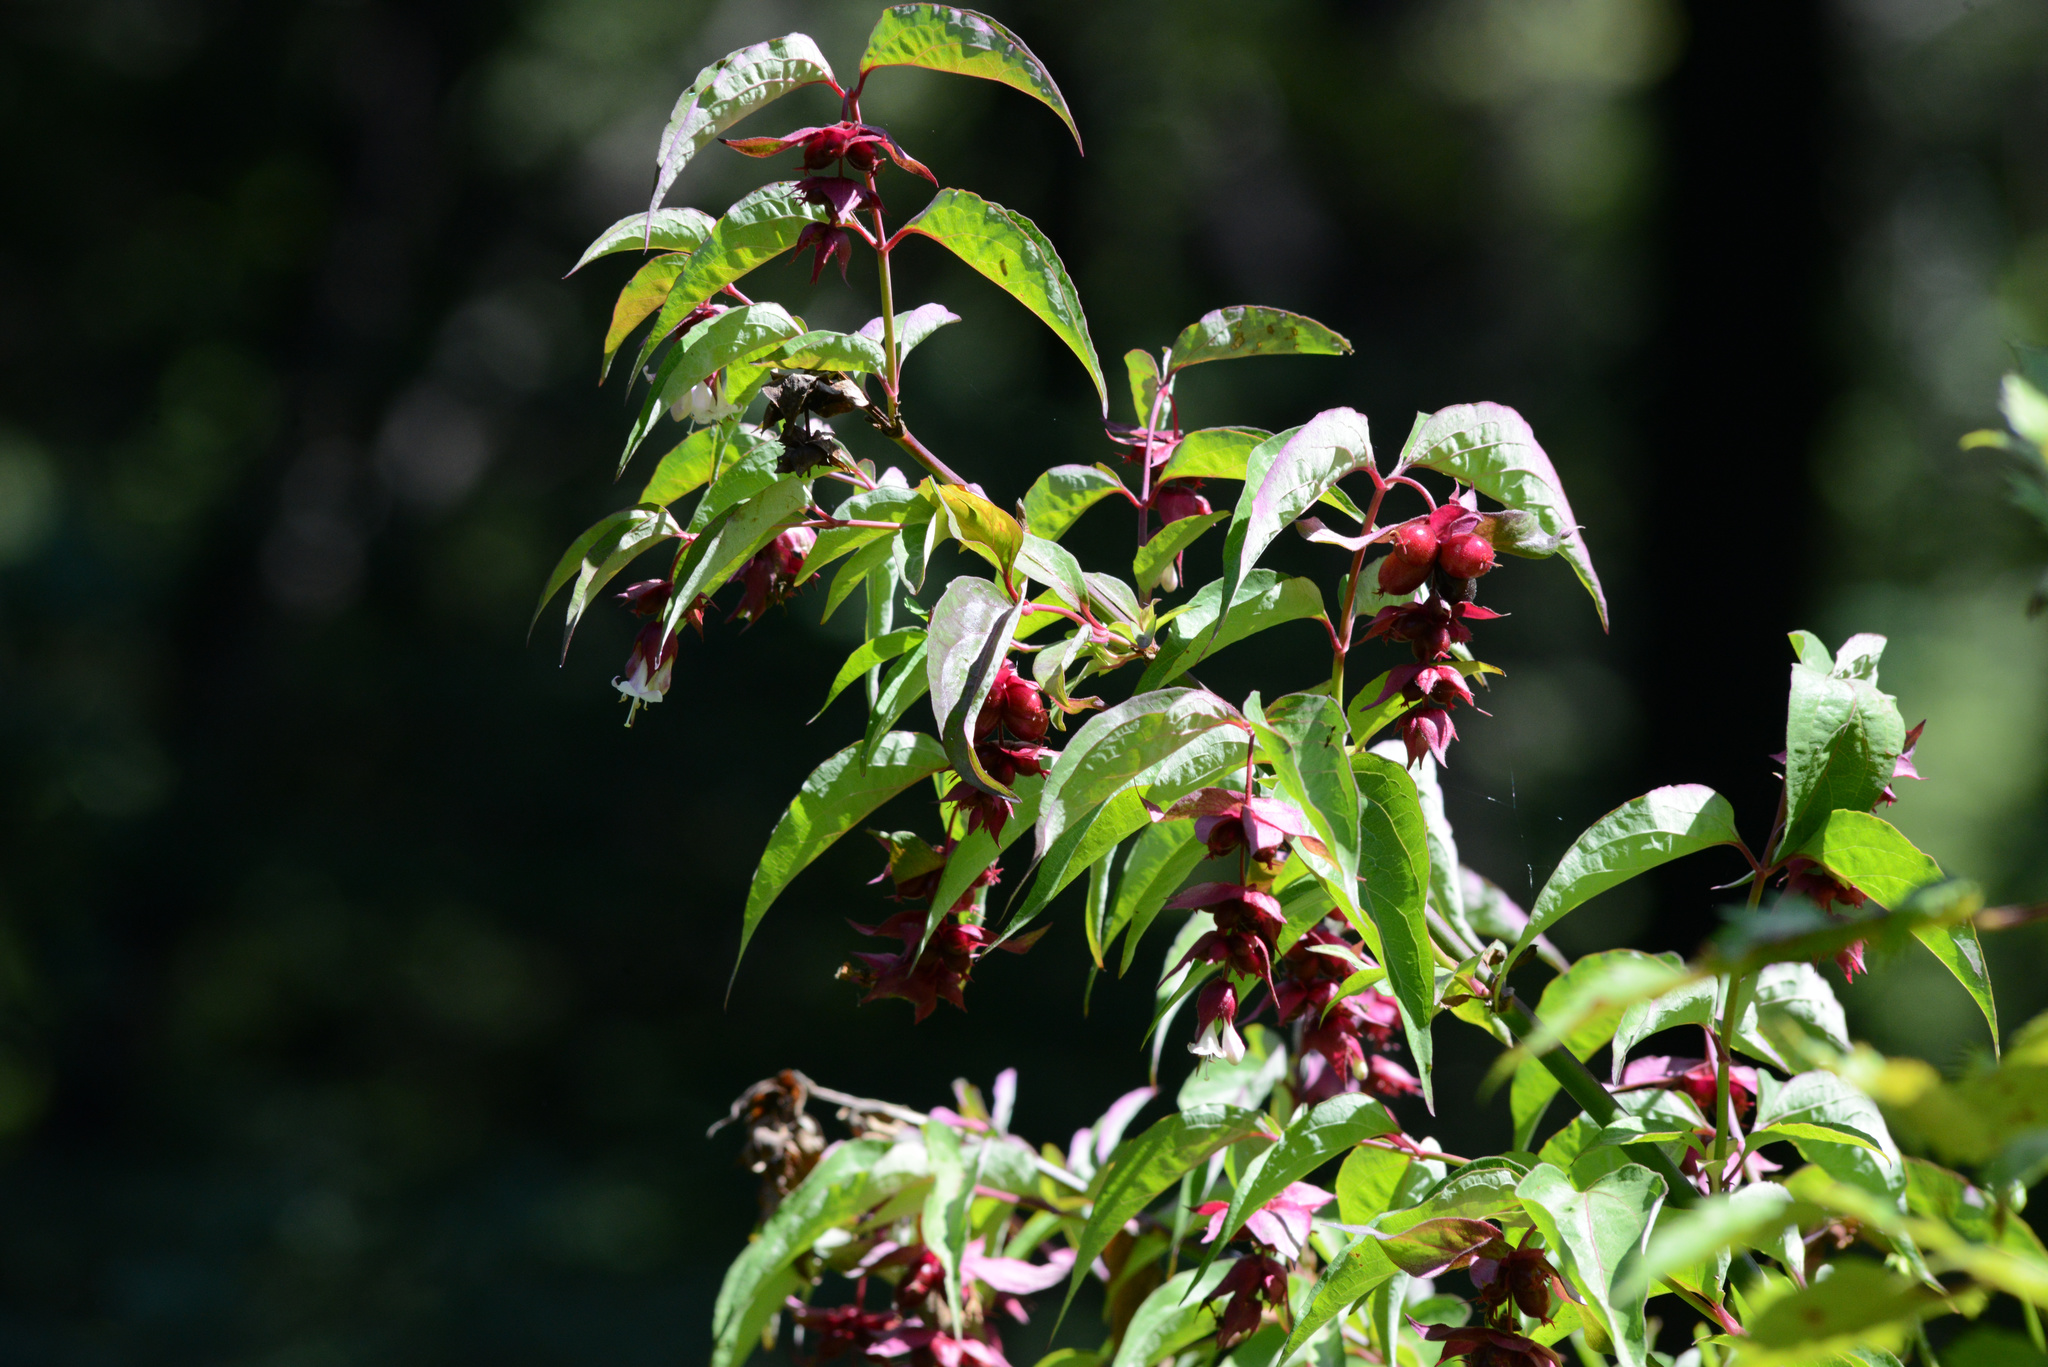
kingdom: Plantae
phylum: Tracheophyta
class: Magnoliopsida
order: Dipsacales
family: Caprifoliaceae
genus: Leycesteria
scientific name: Leycesteria formosa
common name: Himalayan honeysuckle
